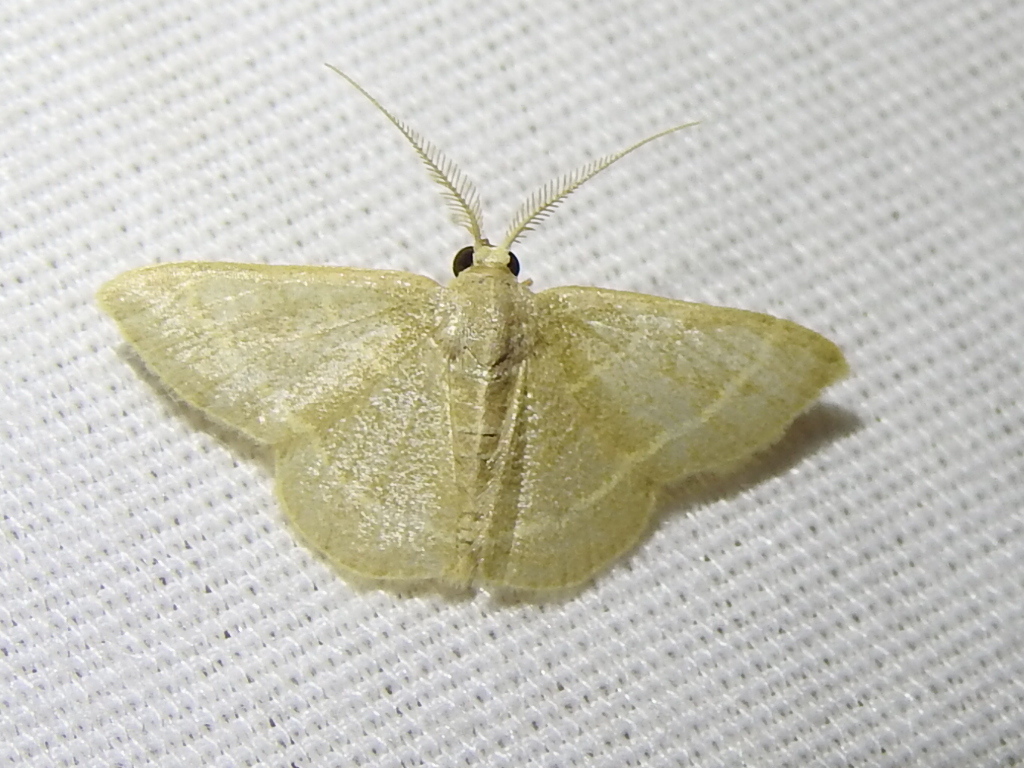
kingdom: Animalia
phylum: Arthropoda
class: Insecta
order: Lepidoptera
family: Geometridae
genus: Chlorochlamys
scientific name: Chlorochlamys chloroleucaria
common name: Blackberry looper
